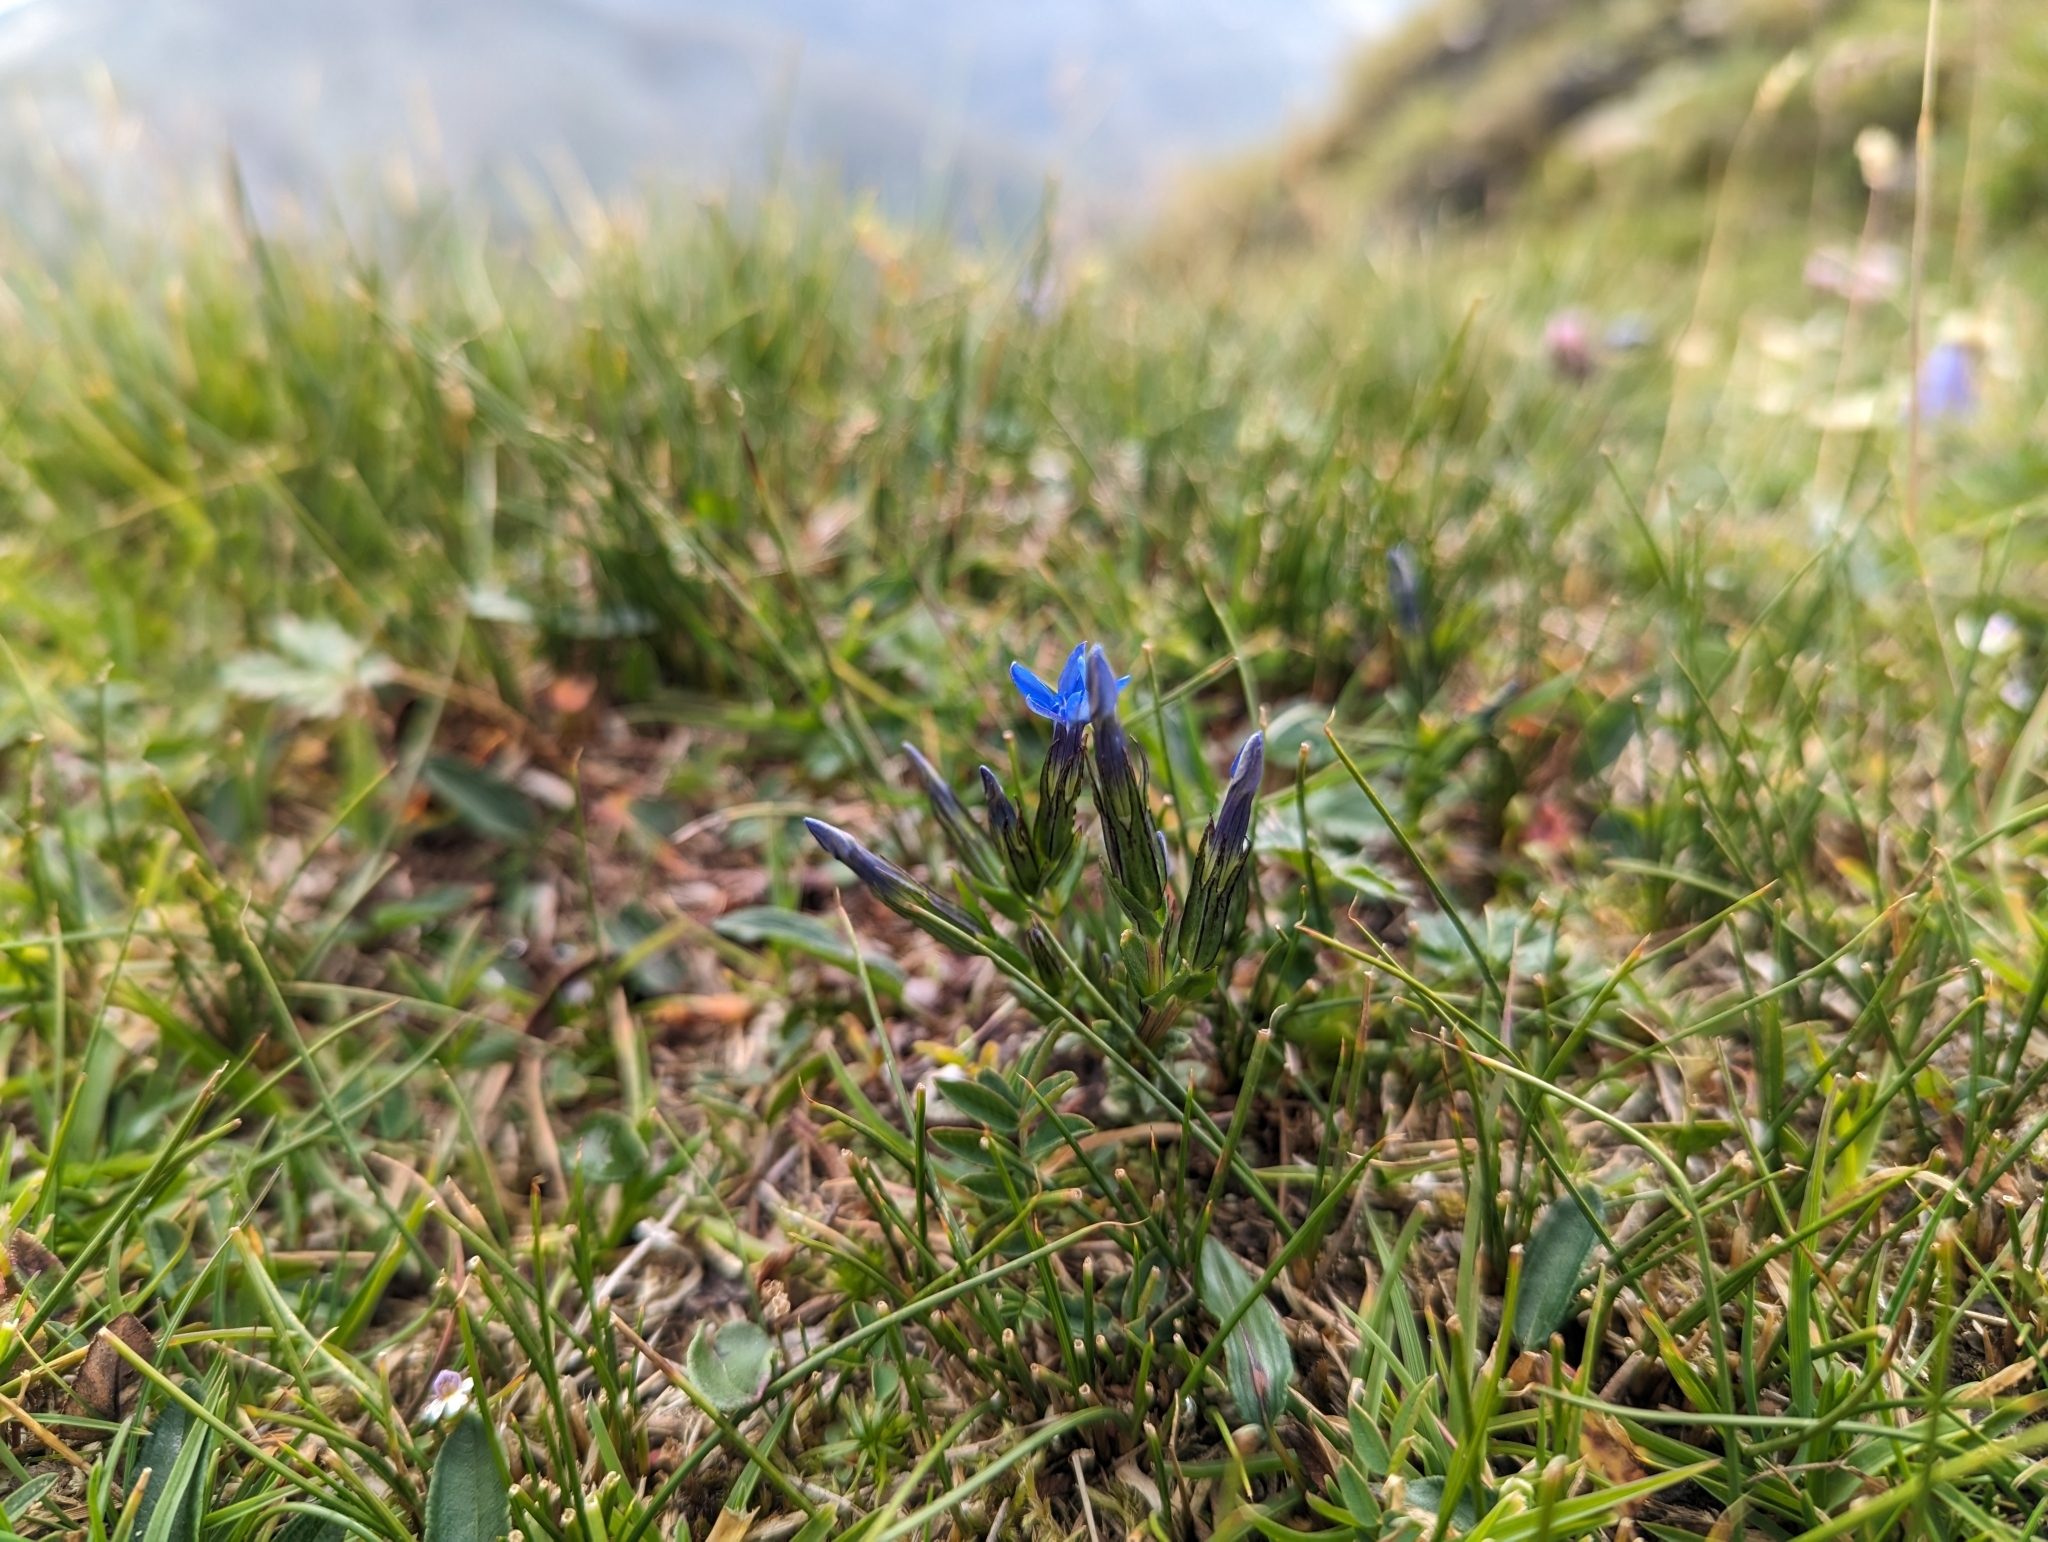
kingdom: Plantae
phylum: Tracheophyta
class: Magnoliopsida
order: Gentianales
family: Gentianaceae
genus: Gentiana
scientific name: Gentiana nivalis
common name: Alpine gentian
